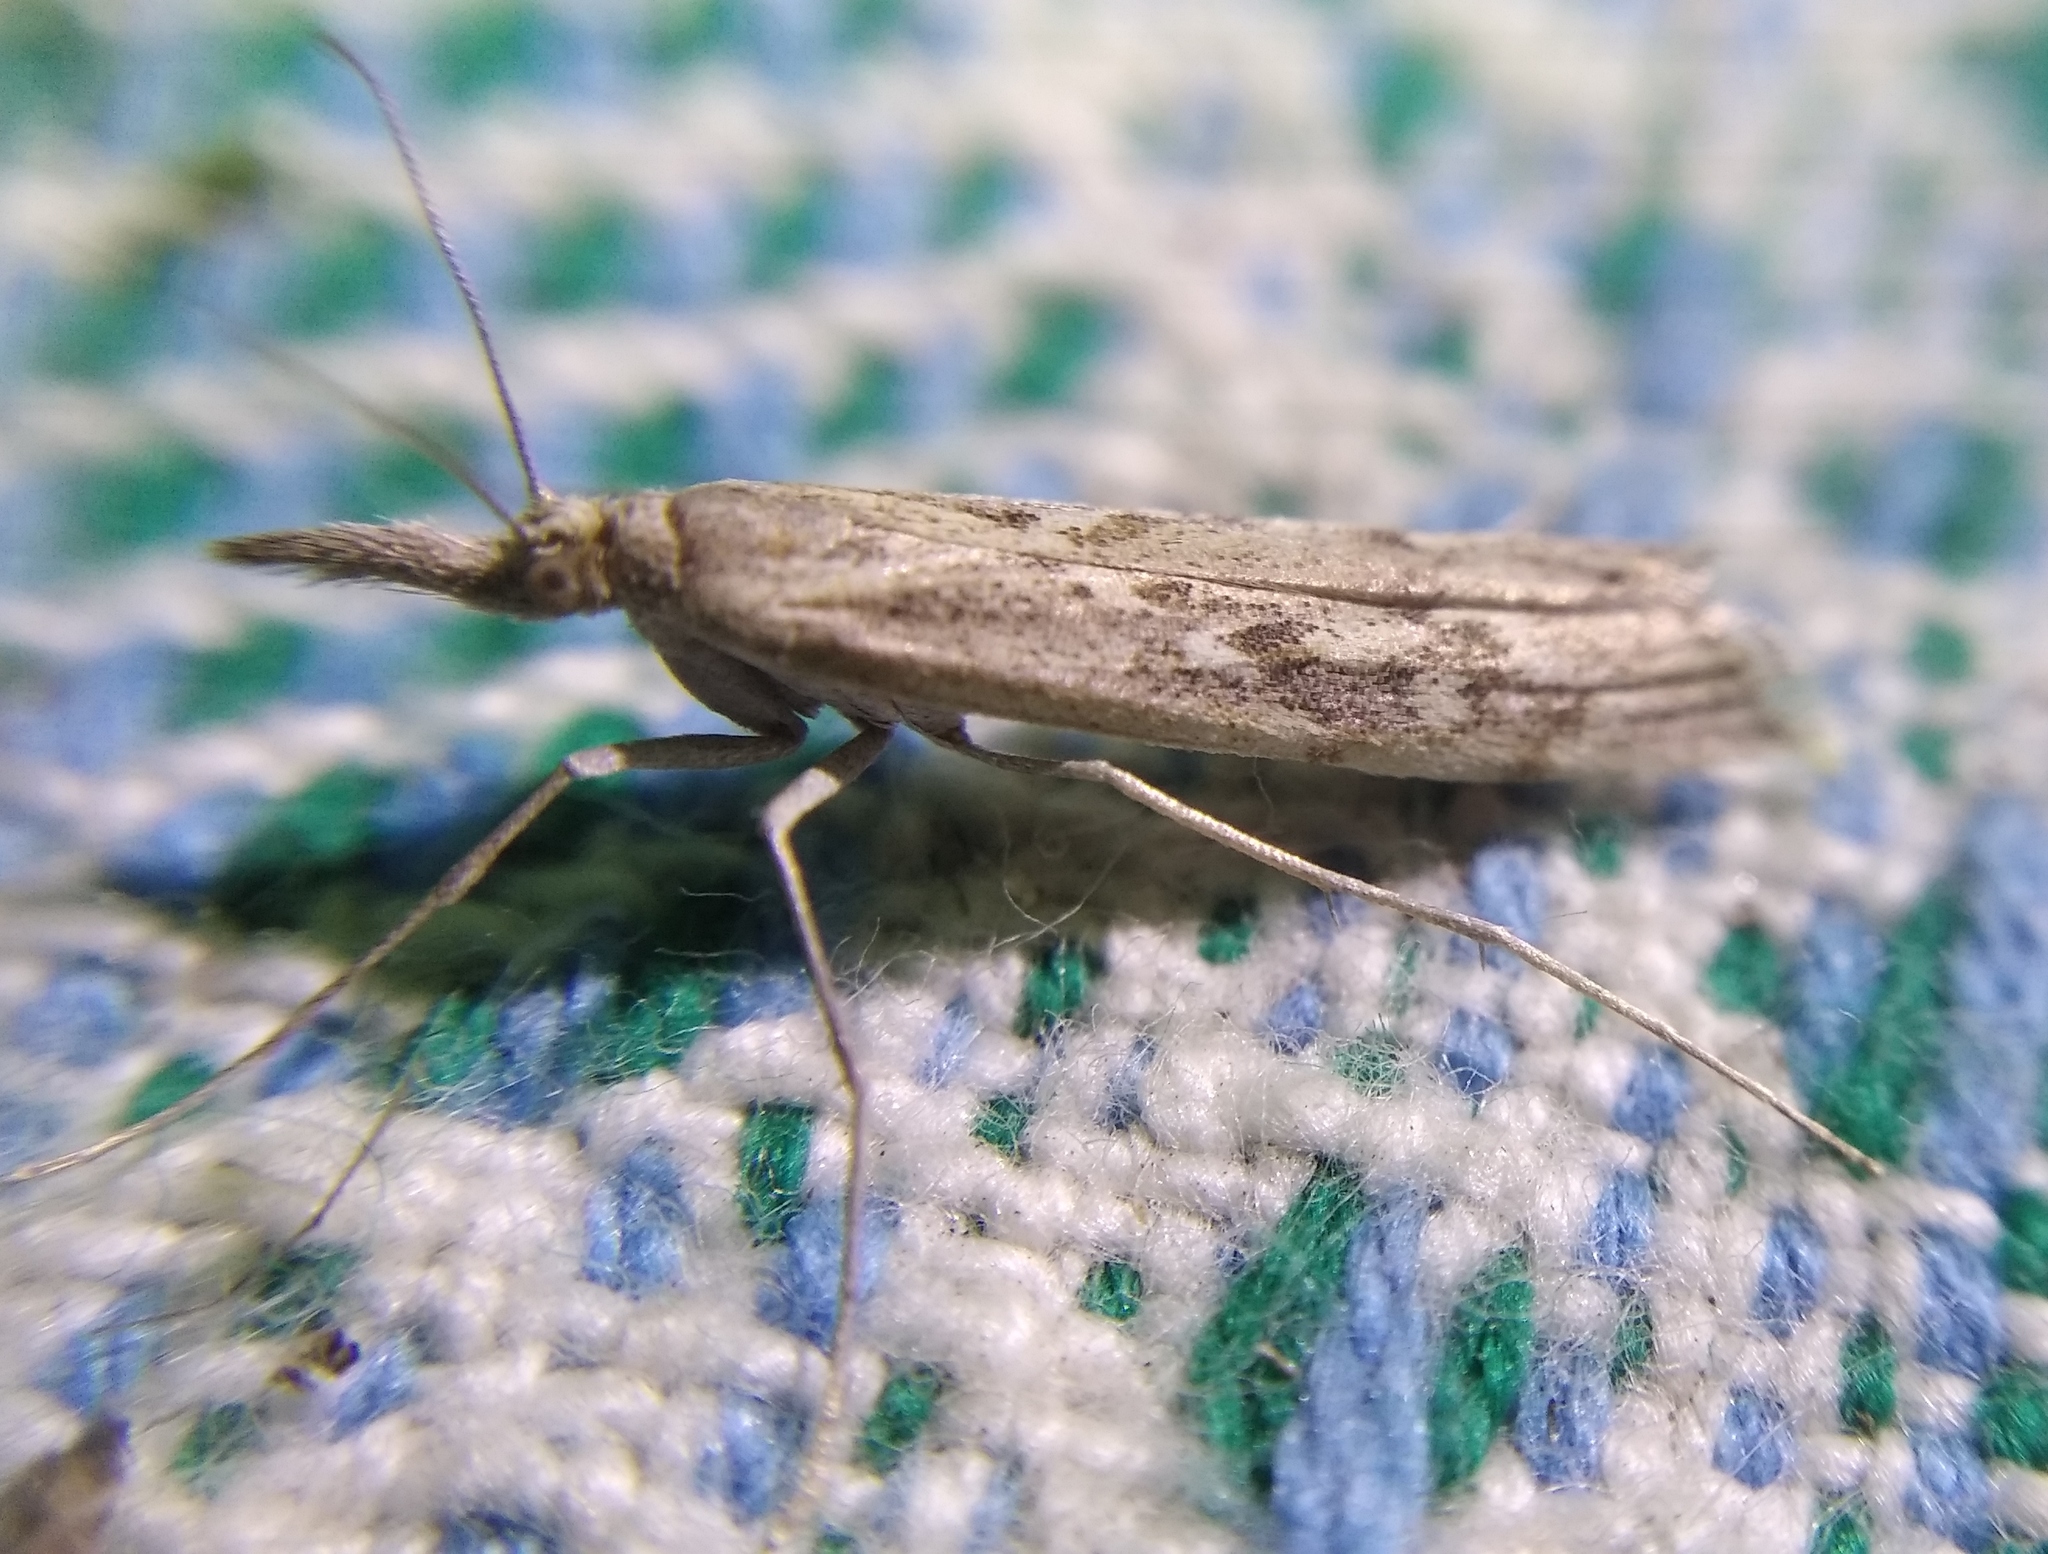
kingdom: Animalia
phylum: Arthropoda
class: Insecta
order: Lepidoptera
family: Crambidae
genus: Pediasia
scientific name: Pediasia matricella
